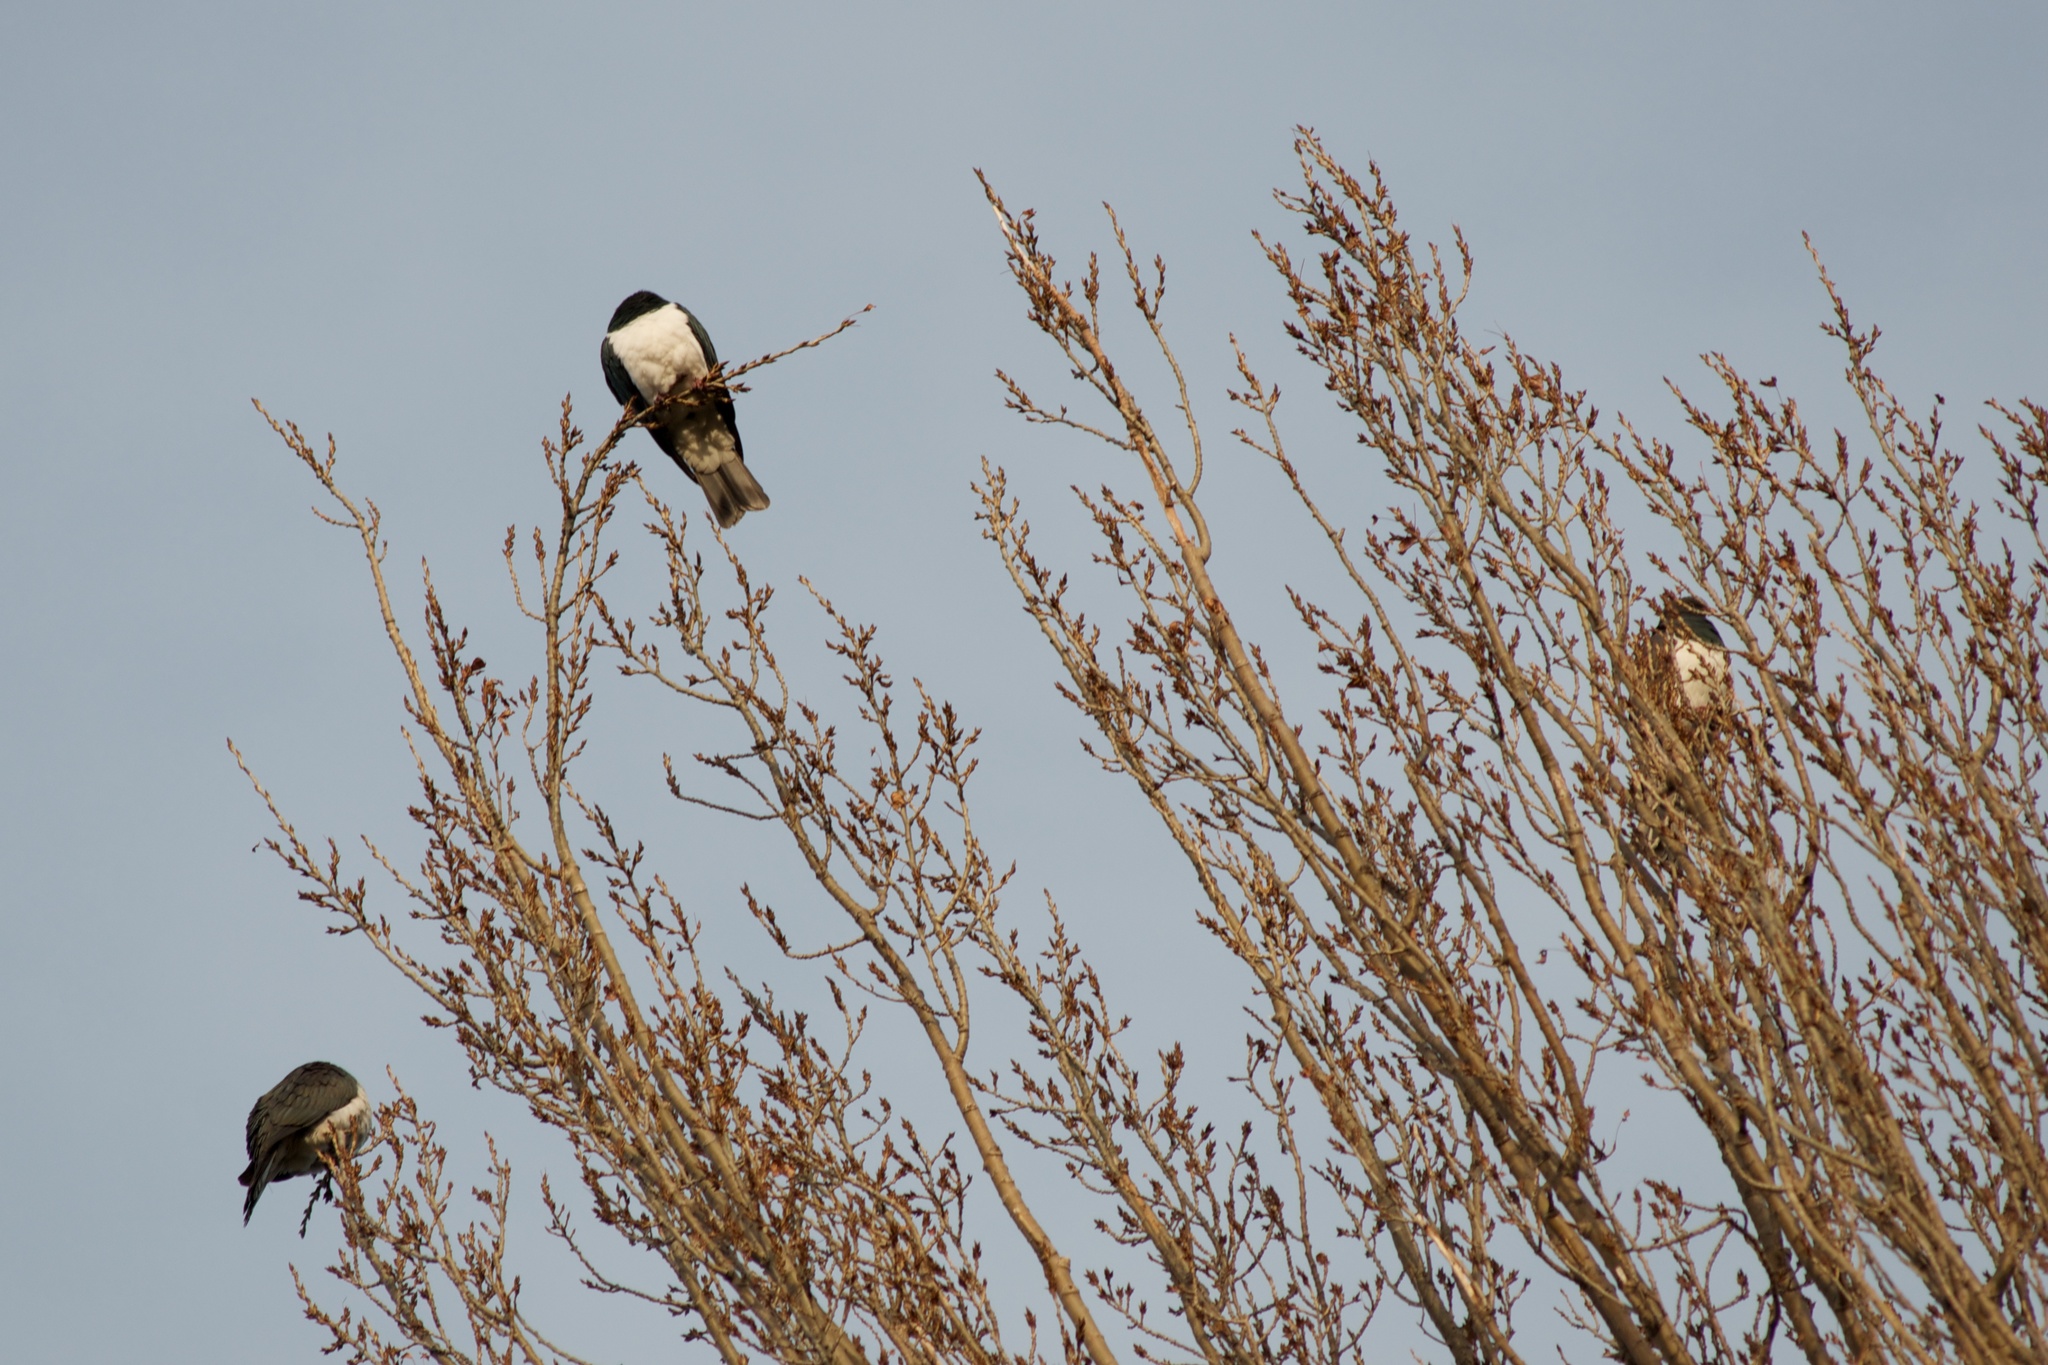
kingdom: Animalia
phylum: Chordata
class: Aves
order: Columbiformes
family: Columbidae
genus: Hemiphaga
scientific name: Hemiphaga novaeseelandiae
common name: New zealand pigeon
